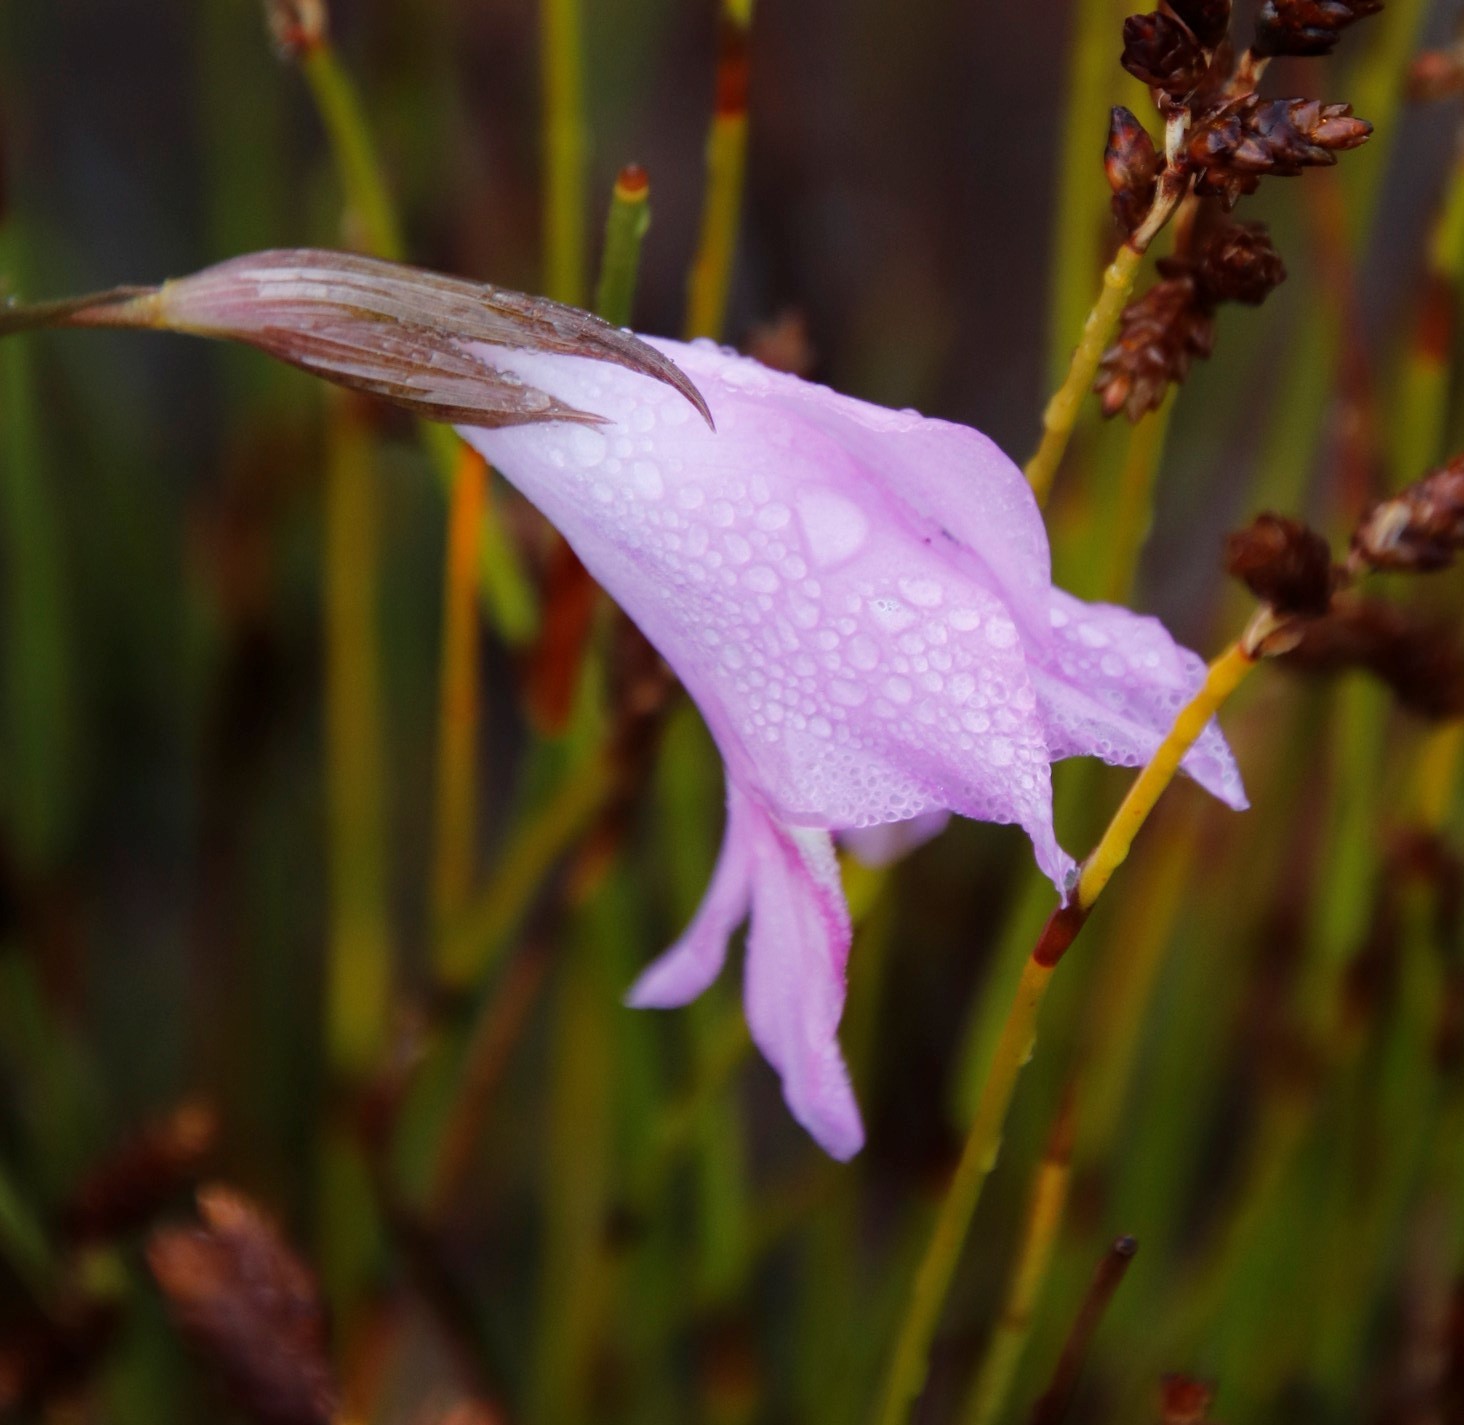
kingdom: Plantae
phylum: Tracheophyta
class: Liliopsida
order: Asparagales
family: Iridaceae
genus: Gladiolus
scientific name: Gladiolus hirsutus
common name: Small pink afrikaner
